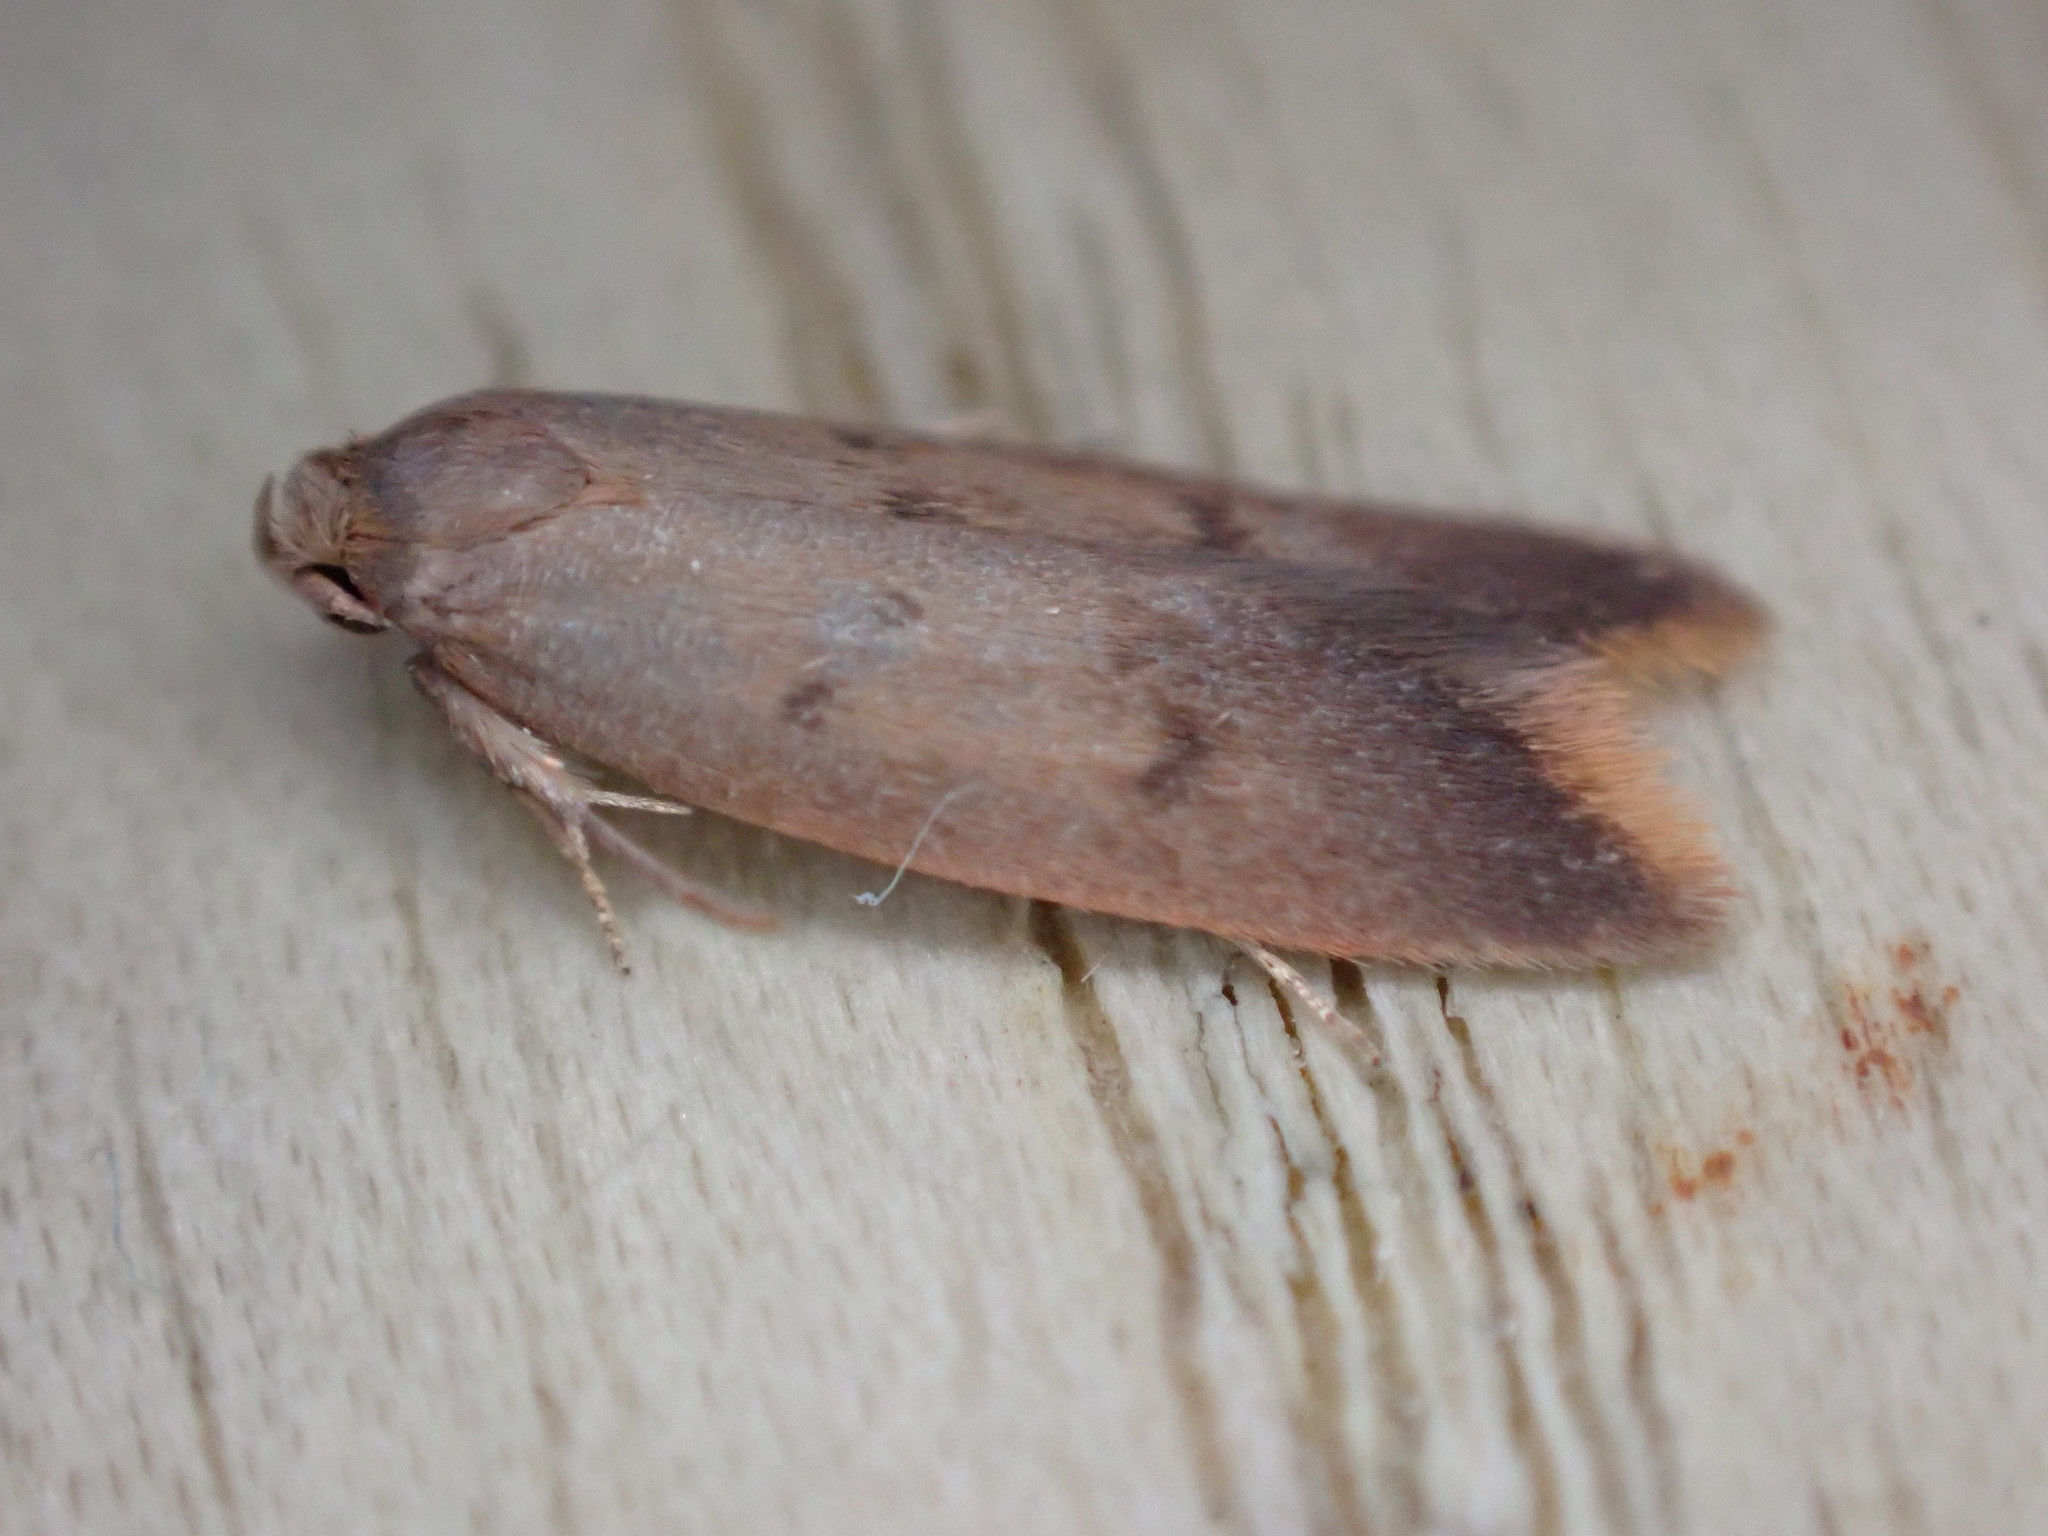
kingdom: Animalia
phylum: Arthropoda
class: Insecta
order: Lepidoptera
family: Oecophoridae
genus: Tachystola
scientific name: Tachystola acroxantha
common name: Ruddy streak
